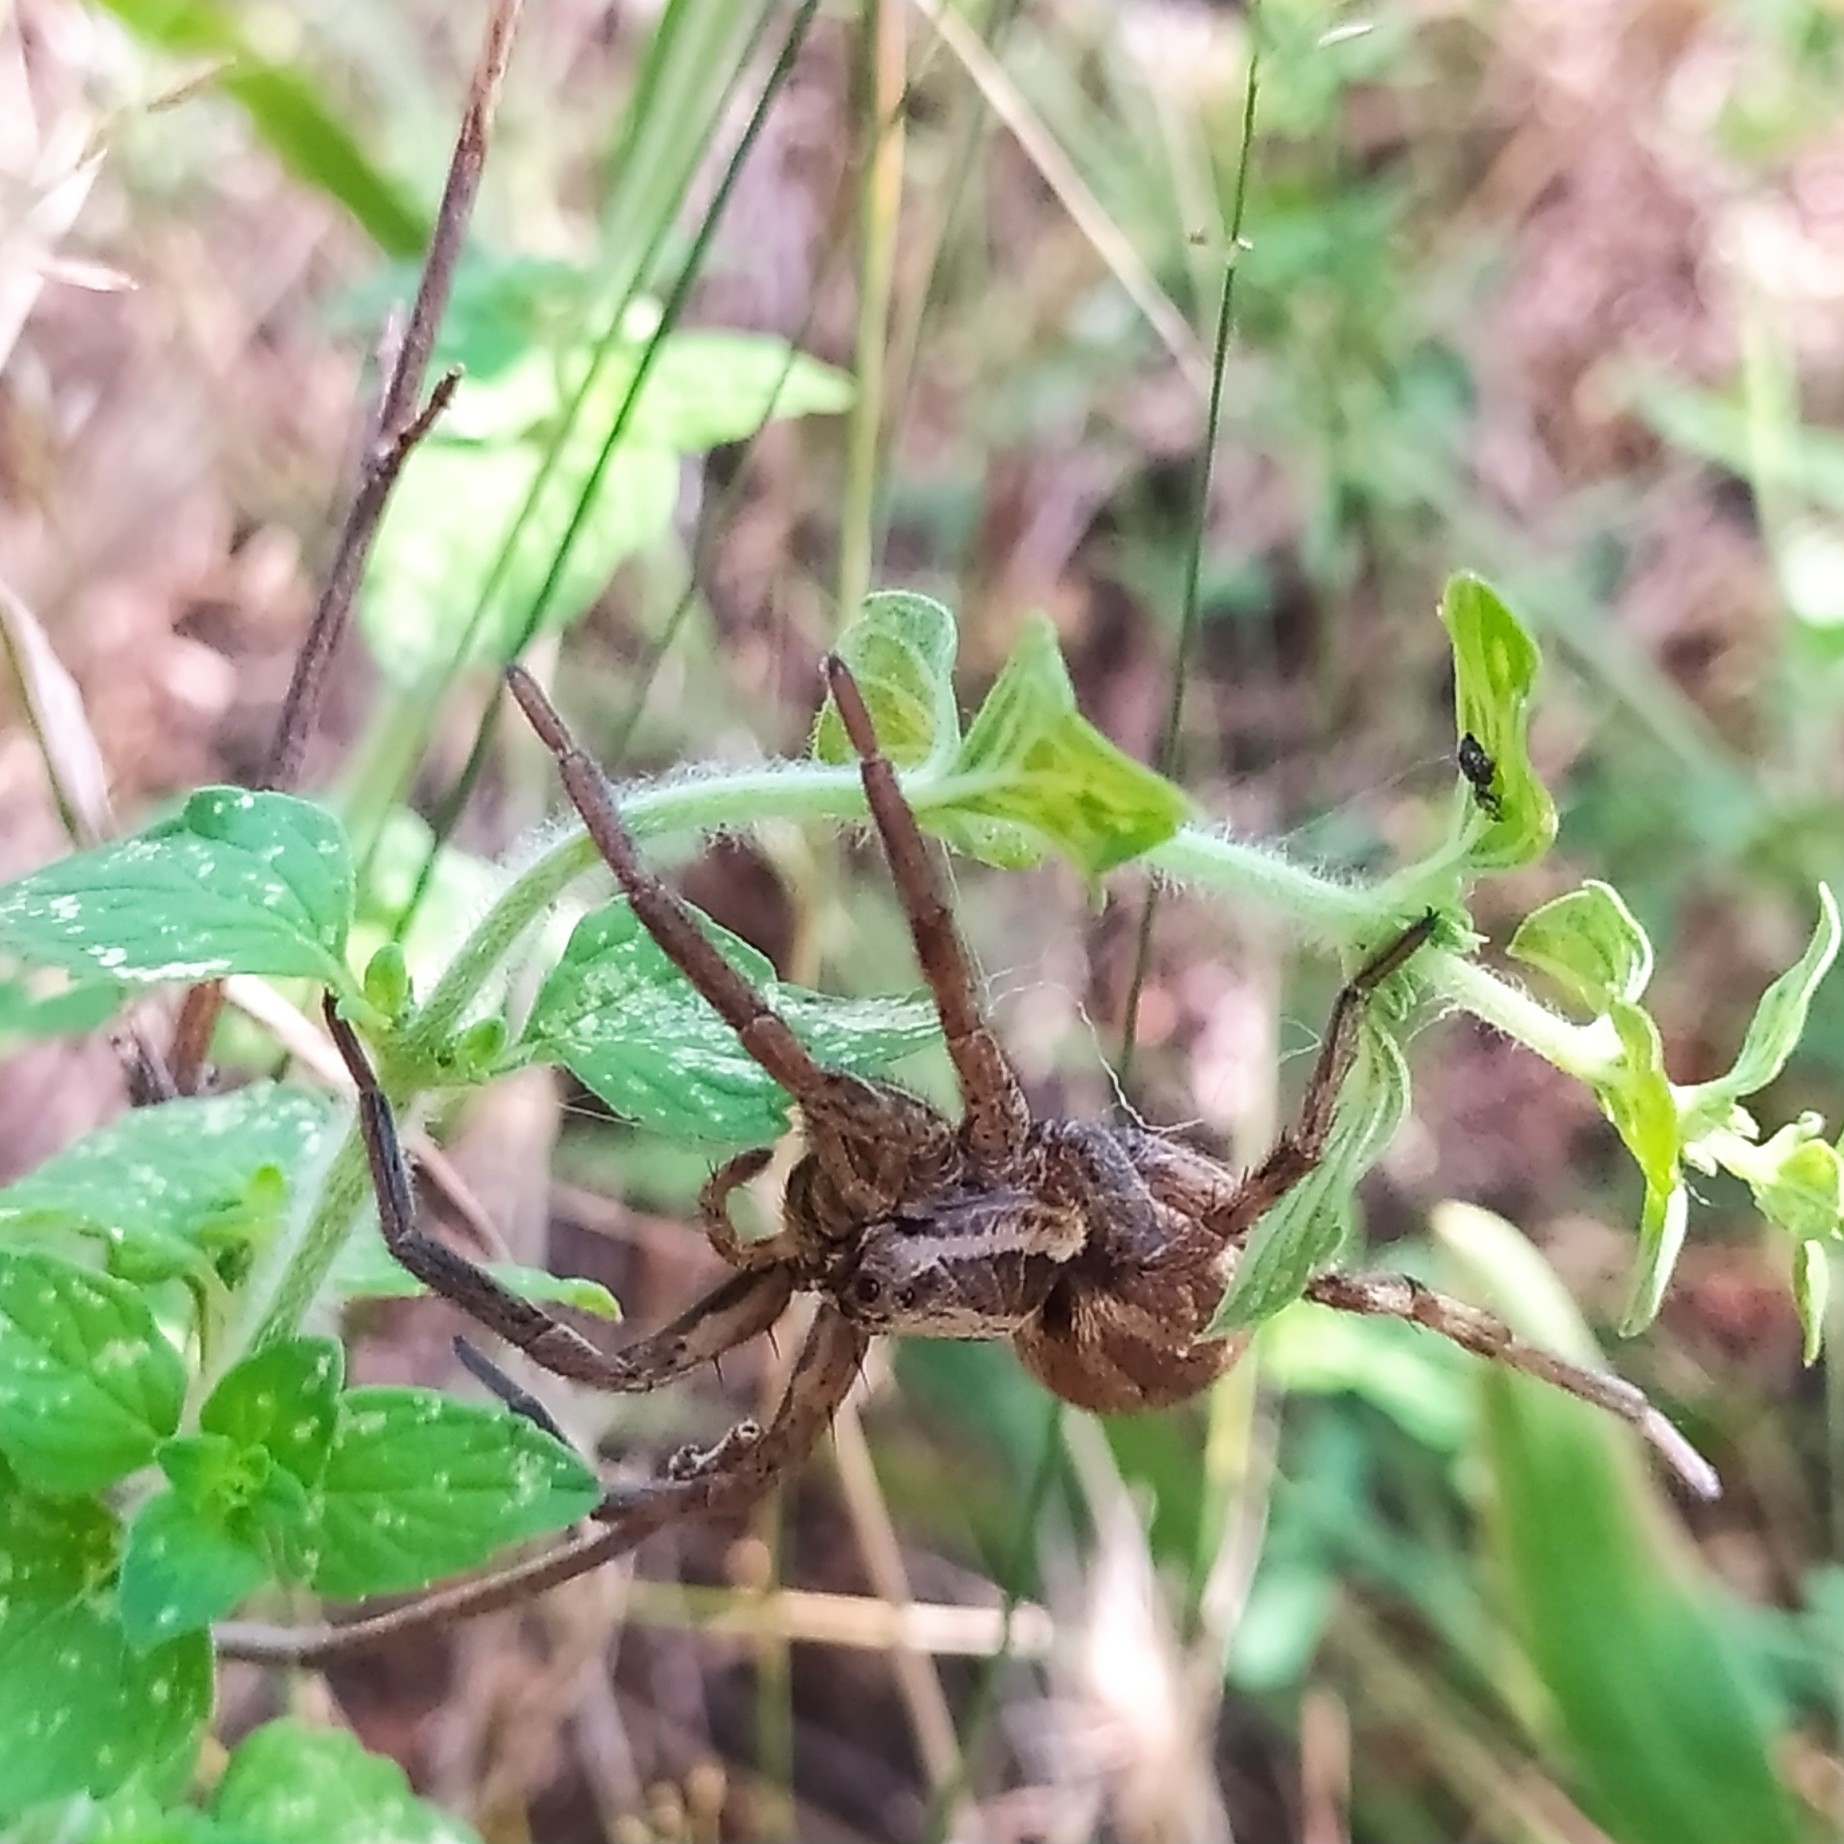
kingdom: Animalia
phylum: Arthropoda
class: Arachnida
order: Araneae
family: Lycosidae
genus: Hogna
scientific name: Hogna radiata
